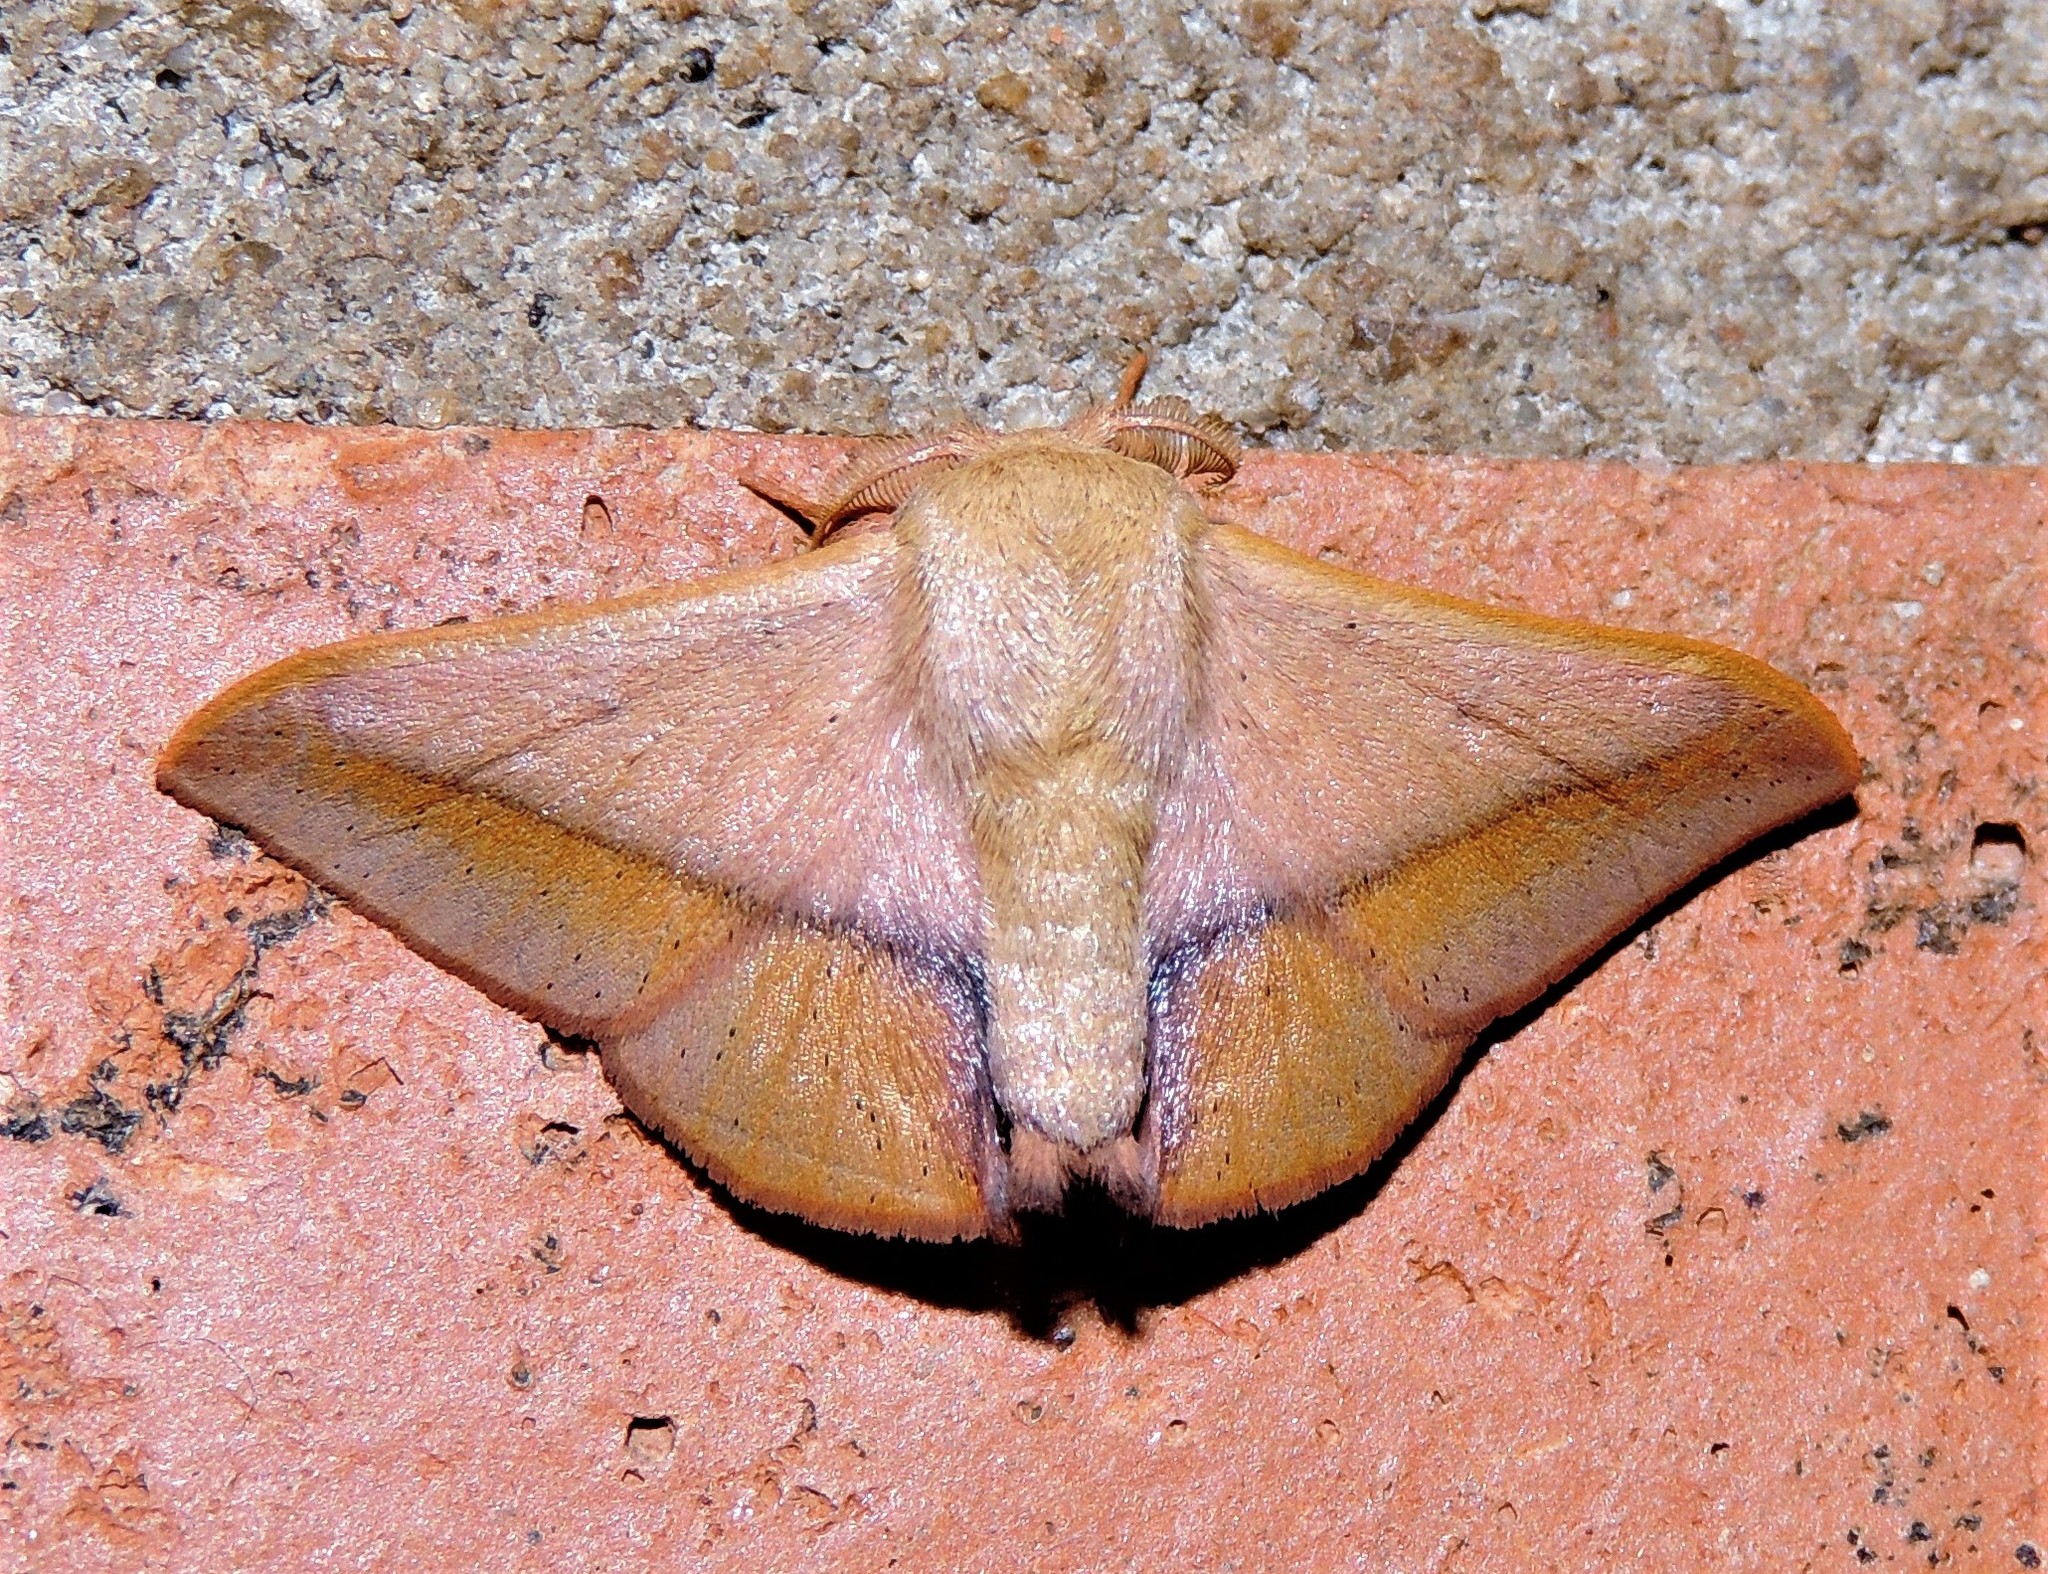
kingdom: Animalia
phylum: Arthropoda
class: Insecta
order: Lepidoptera
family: Mimallonidae
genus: Vanenga
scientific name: Vanenga mediorosea
